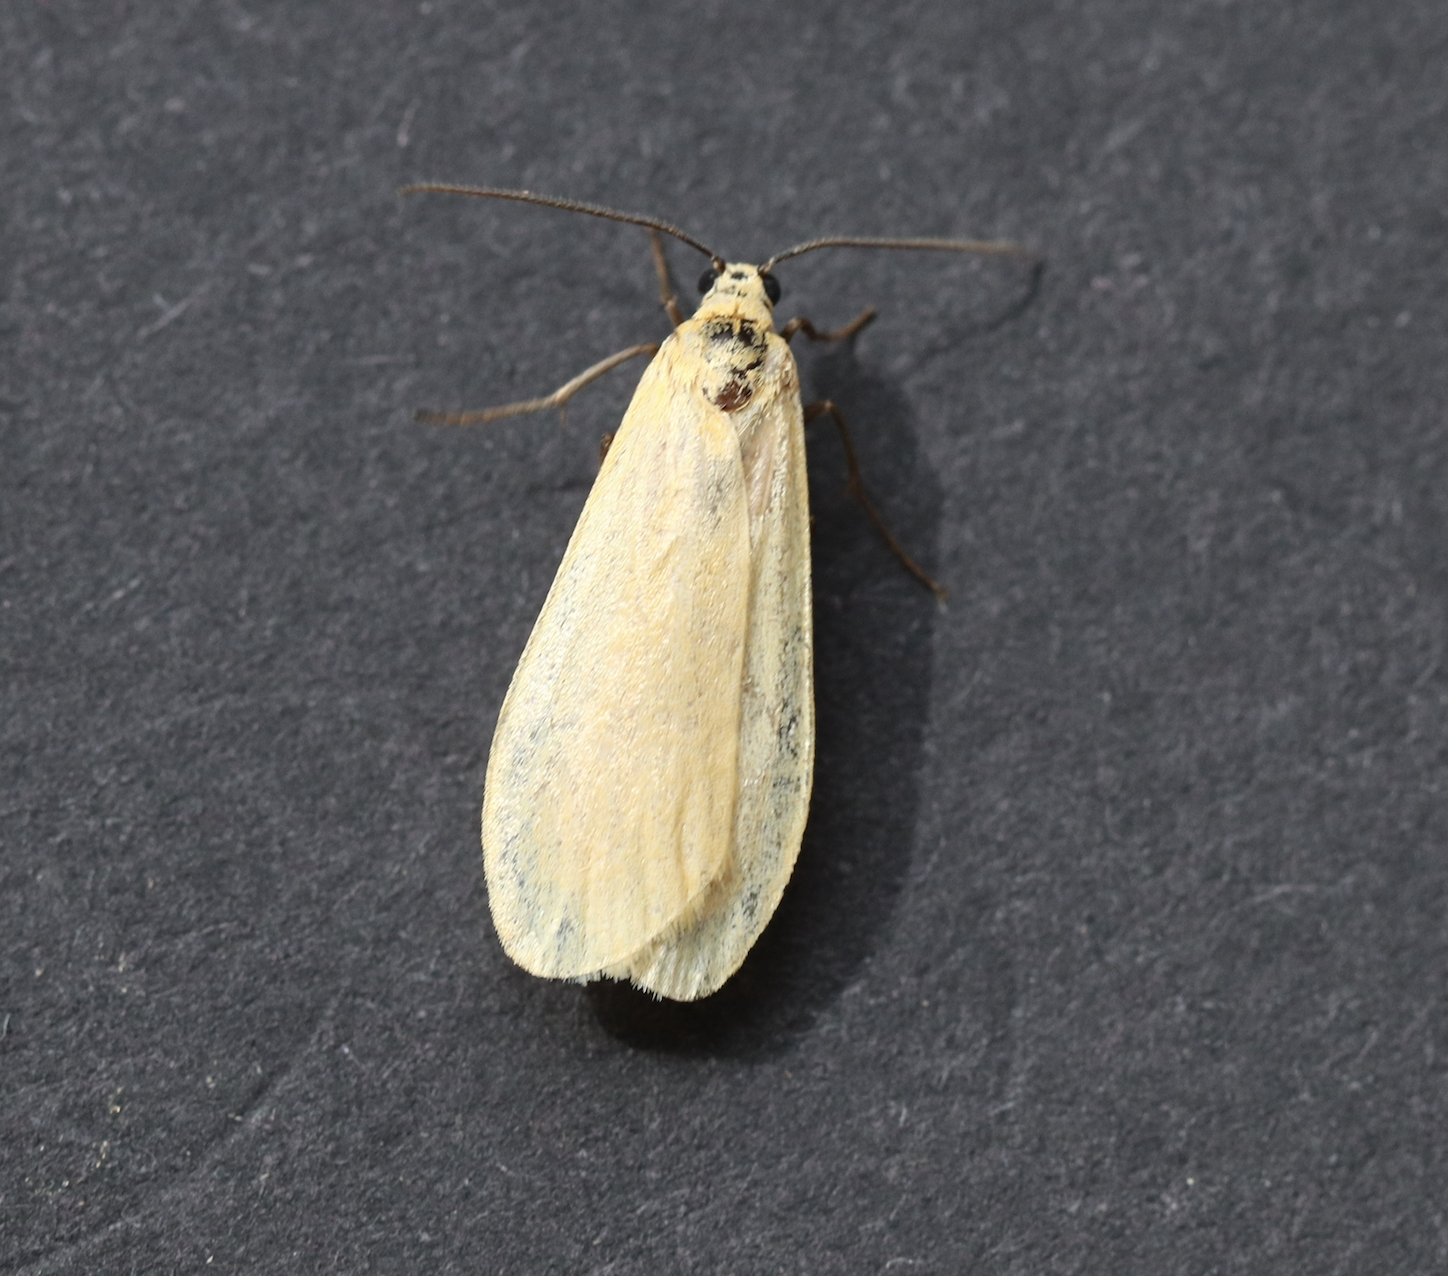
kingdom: Animalia
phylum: Arthropoda
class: Insecta
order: Lepidoptera
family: Erebidae
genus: Wittia
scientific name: Wittia sororcula
